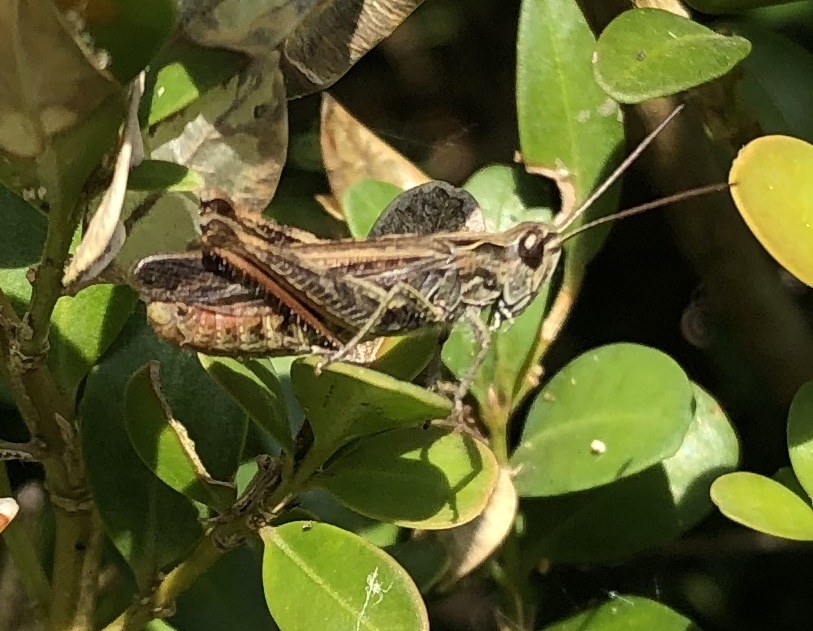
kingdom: Animalia
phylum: Arthropoda
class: Insecta
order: Orthoptera
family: Acrididae
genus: Chorthippus
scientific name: Chorthippus biguttulus
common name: Bow-winged grasshopper
